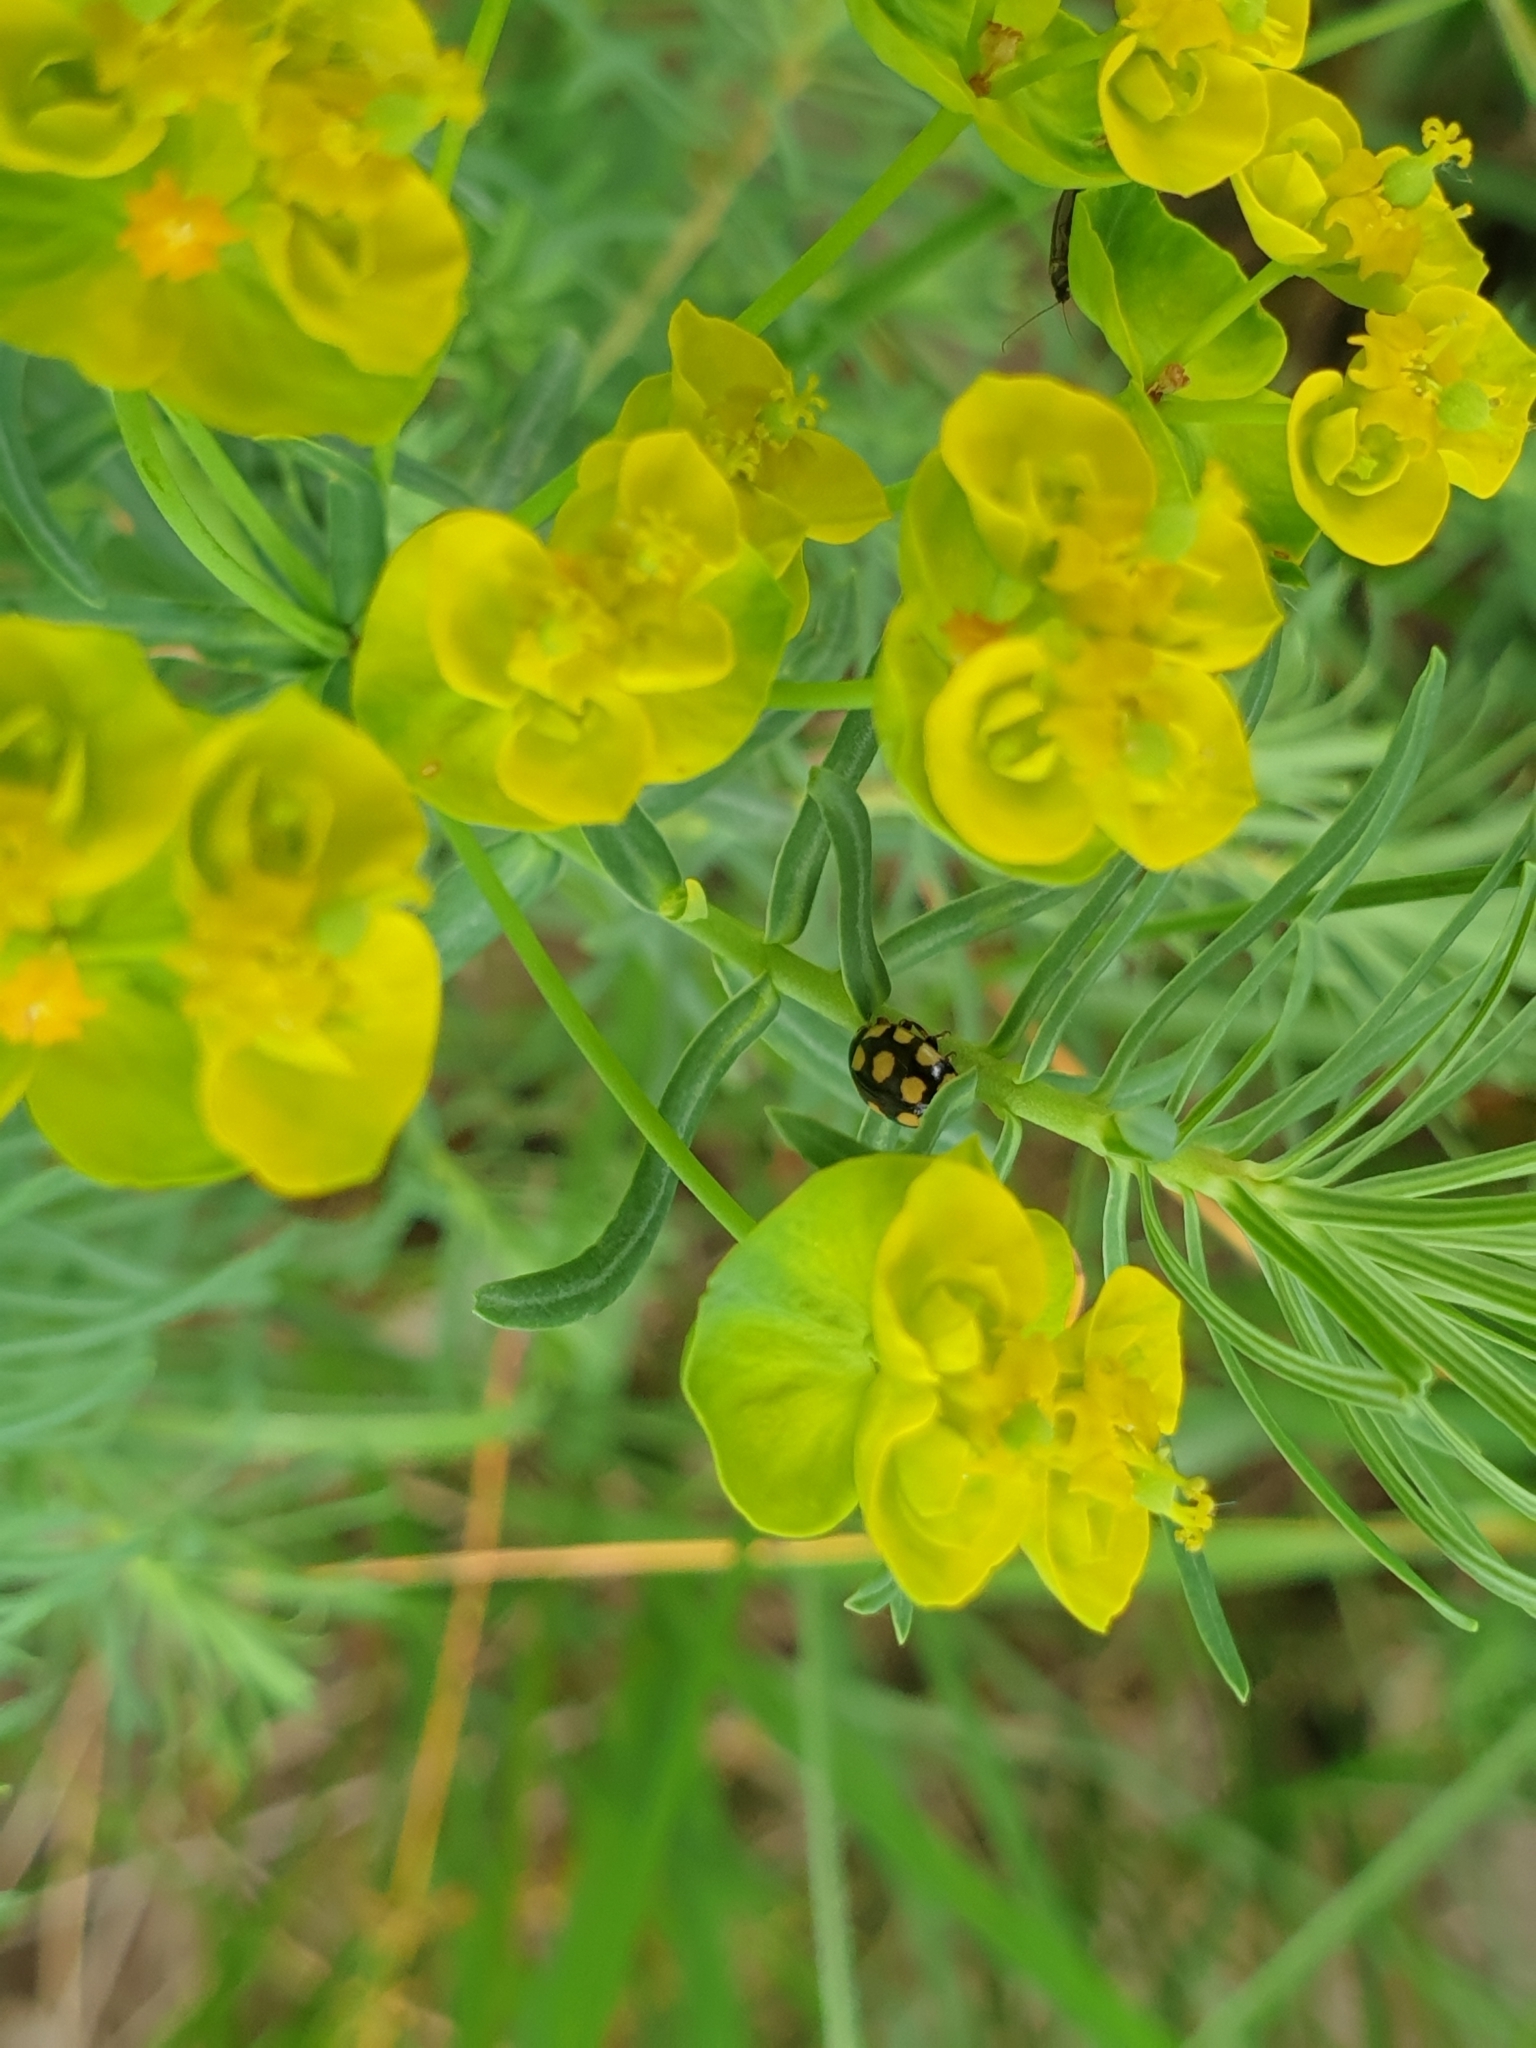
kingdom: Animalia
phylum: Arthropoda
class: Insecta
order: Coleoptera
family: Coccinellidae
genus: Coccinula
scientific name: Coccinula quatuordecimpustulata
